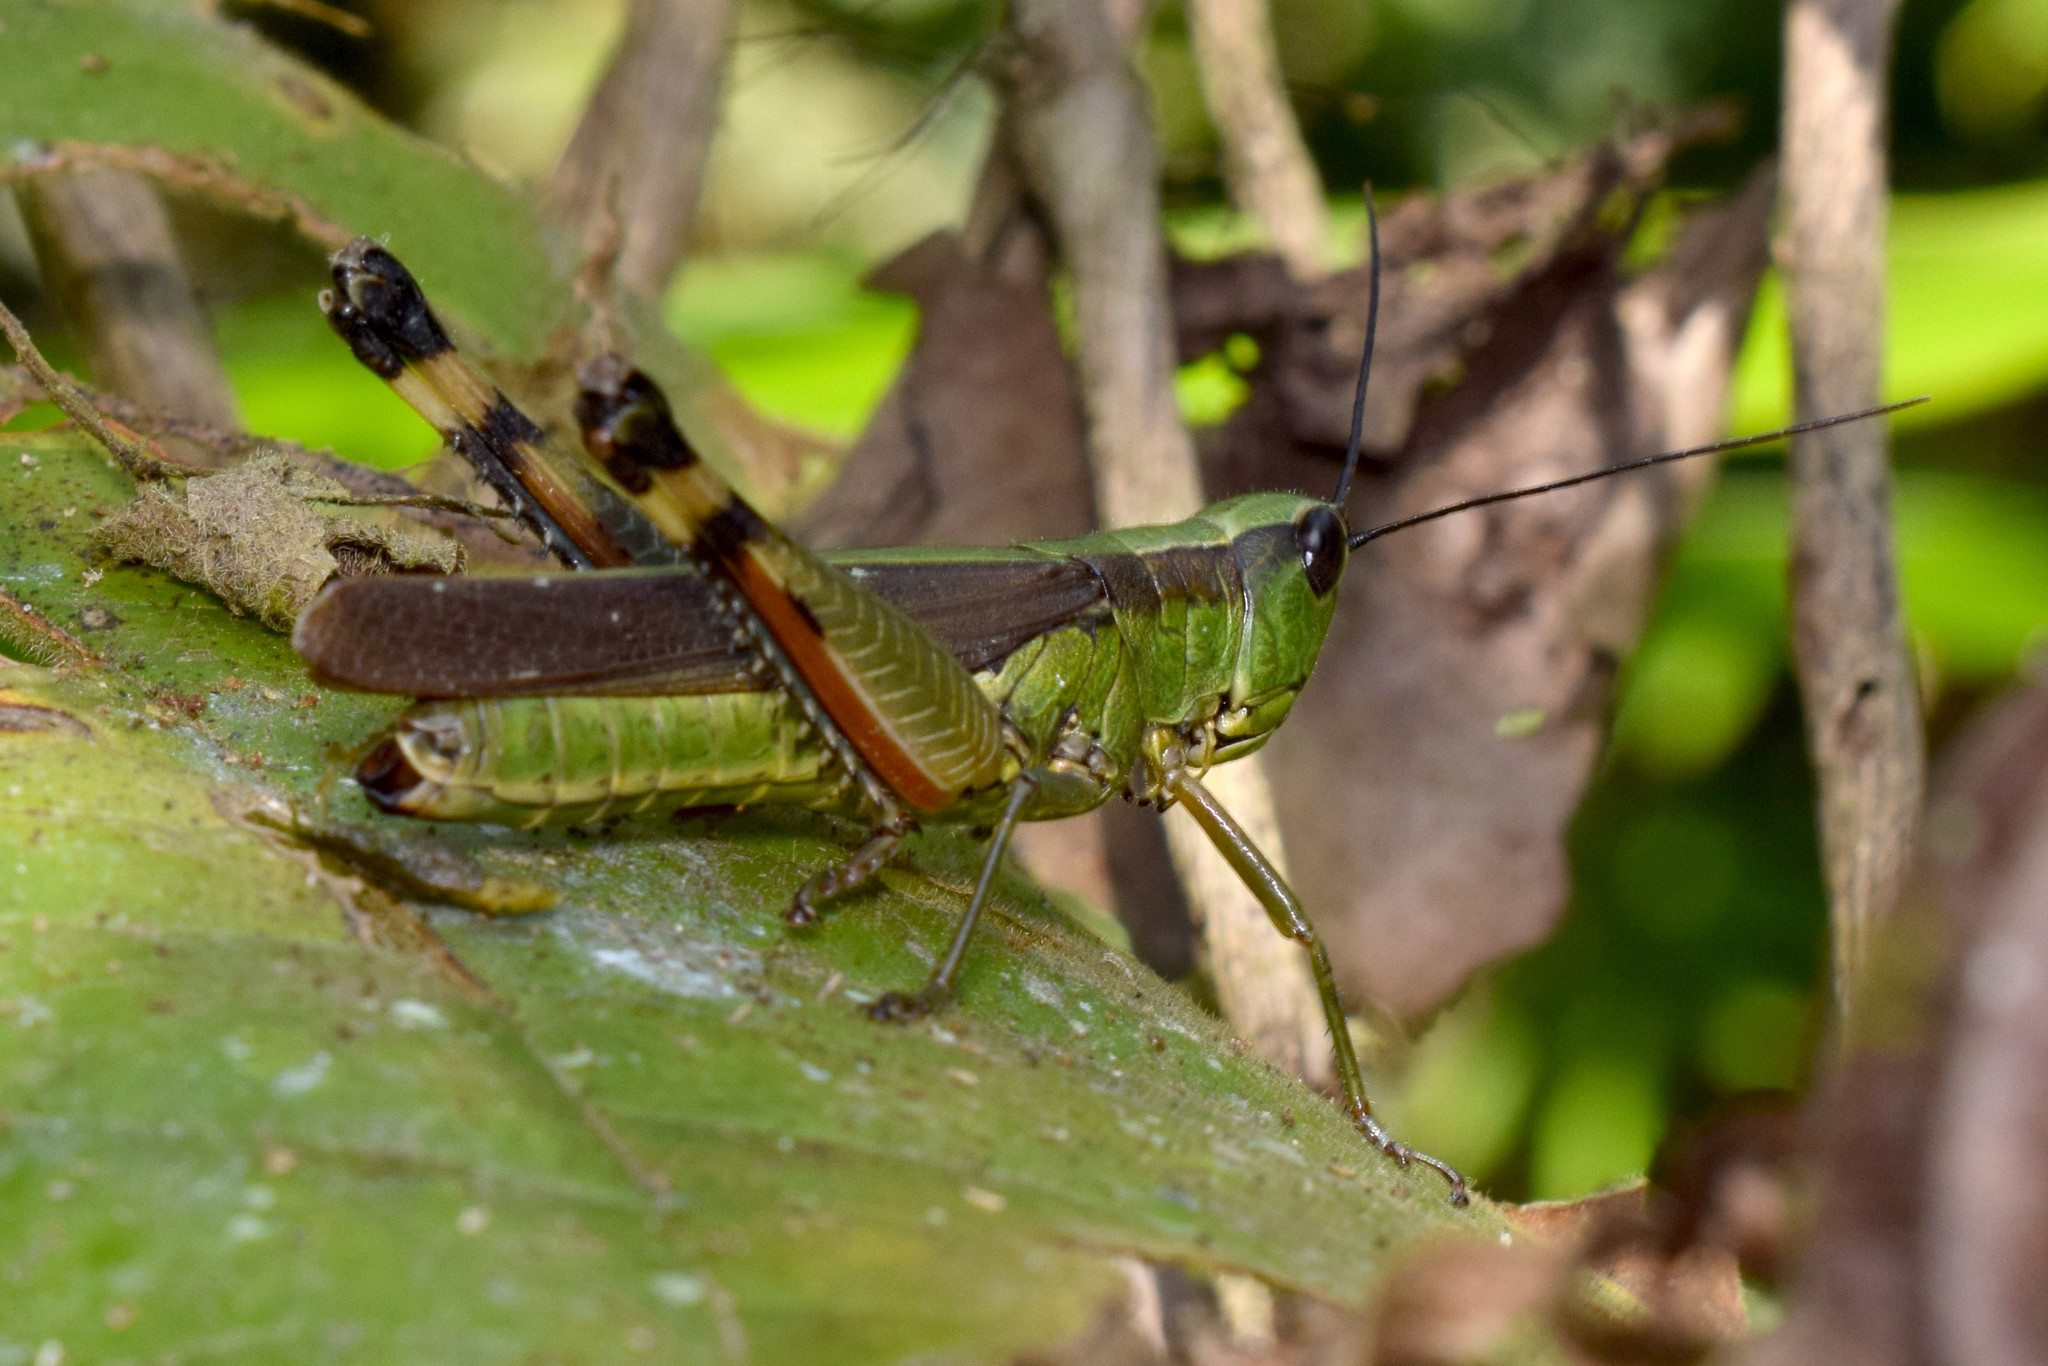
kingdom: Animalia
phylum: Arthropoda
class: Insecta
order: Orthoptera
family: Acrididae
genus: Ceracris
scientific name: Ceracris nigricornis
